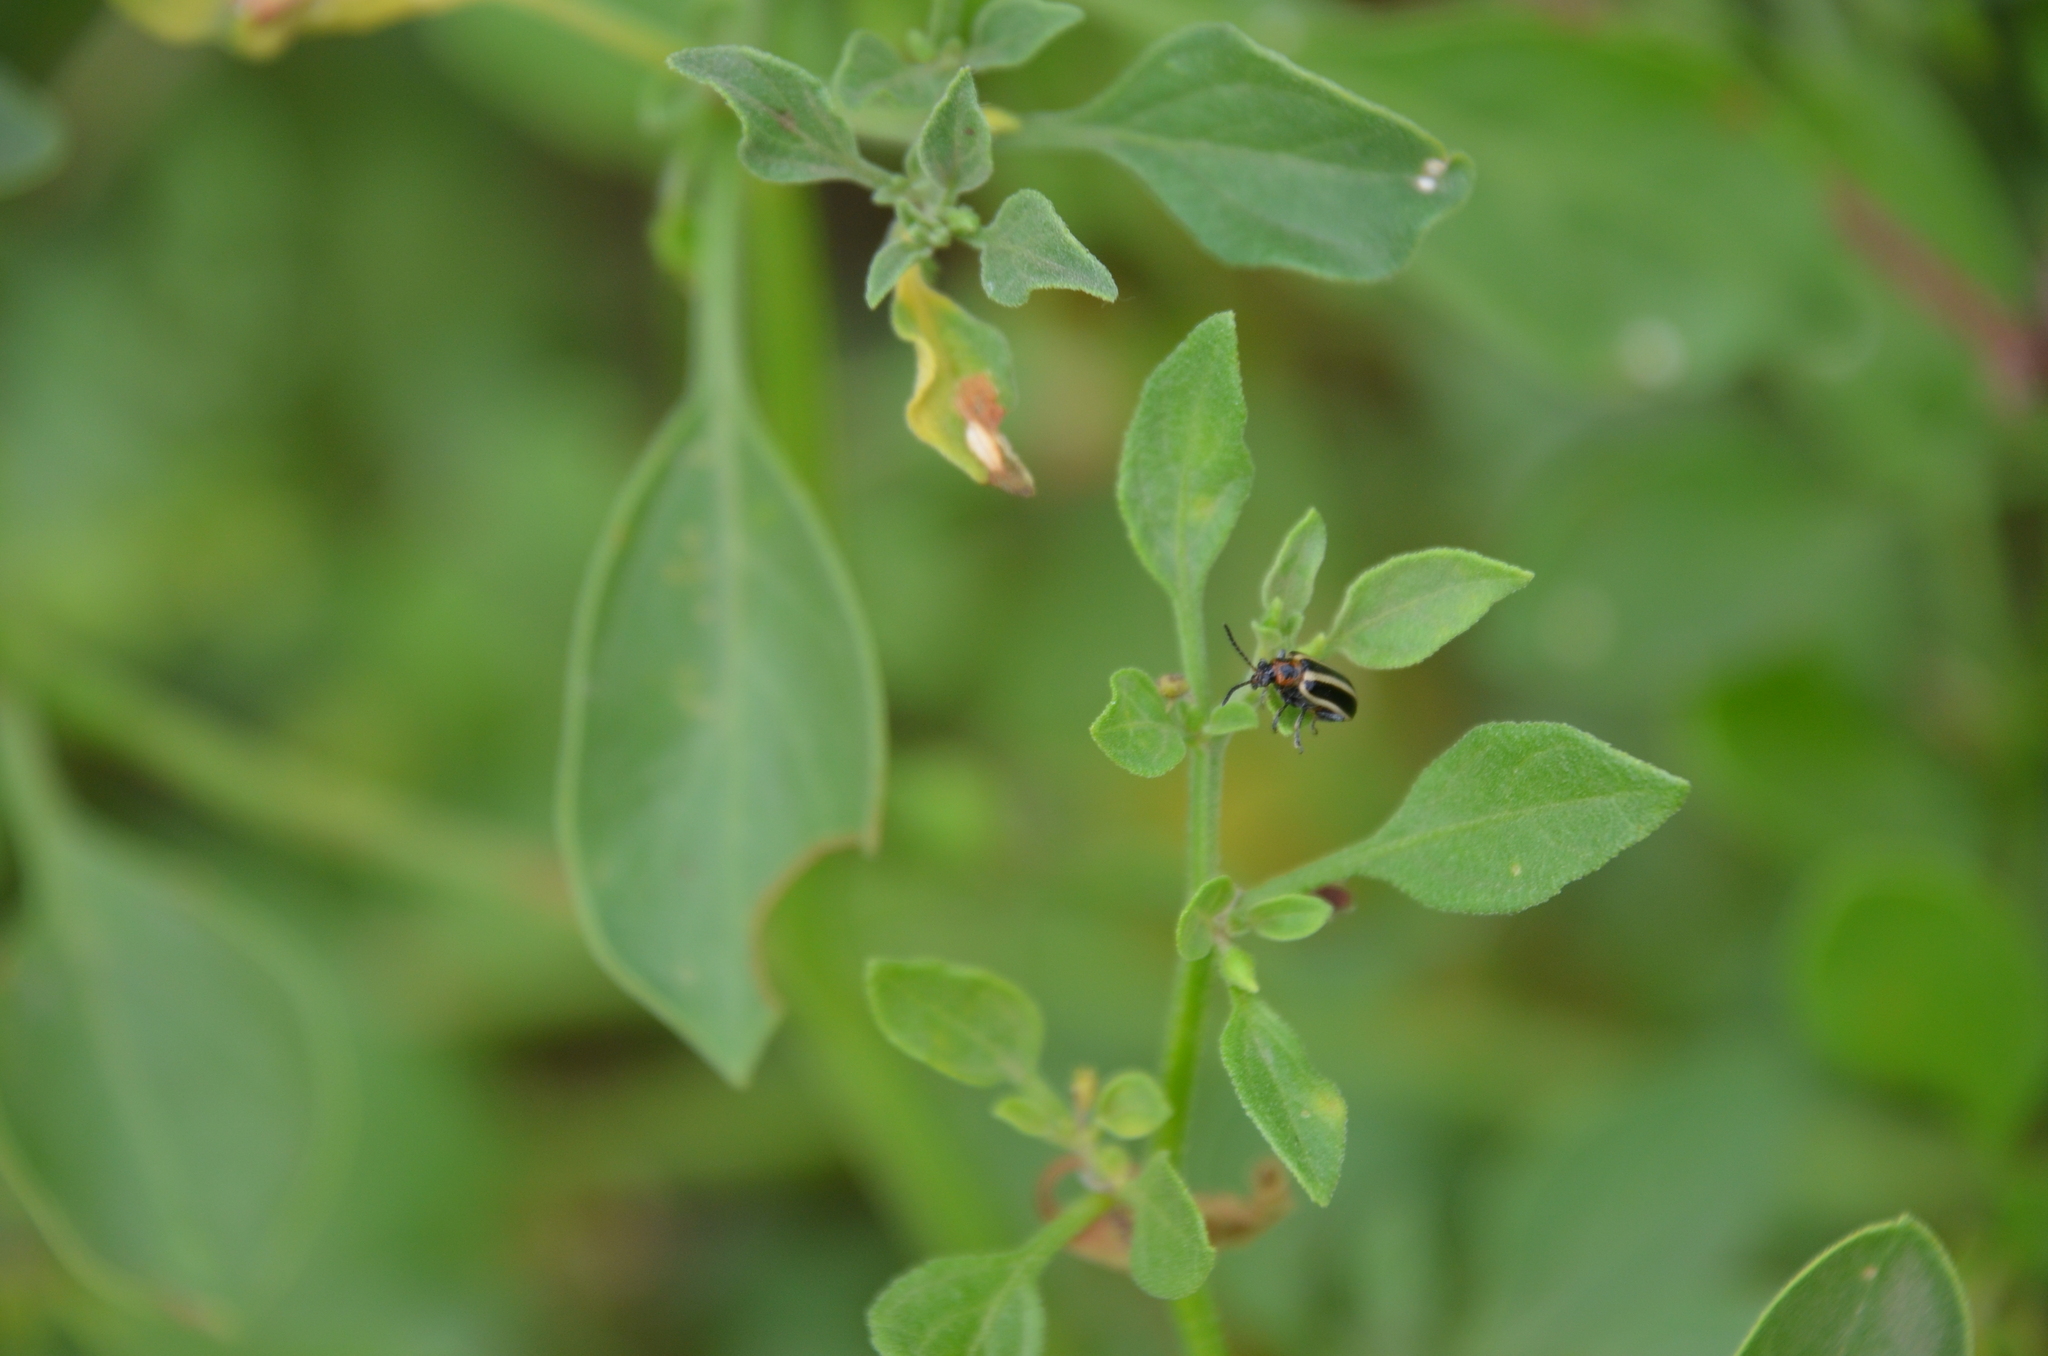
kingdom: Animalia
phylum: Arthropoda
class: Insecta
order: Coleoptera
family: Chrysomelidae
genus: Lema
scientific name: Lema bilineata
